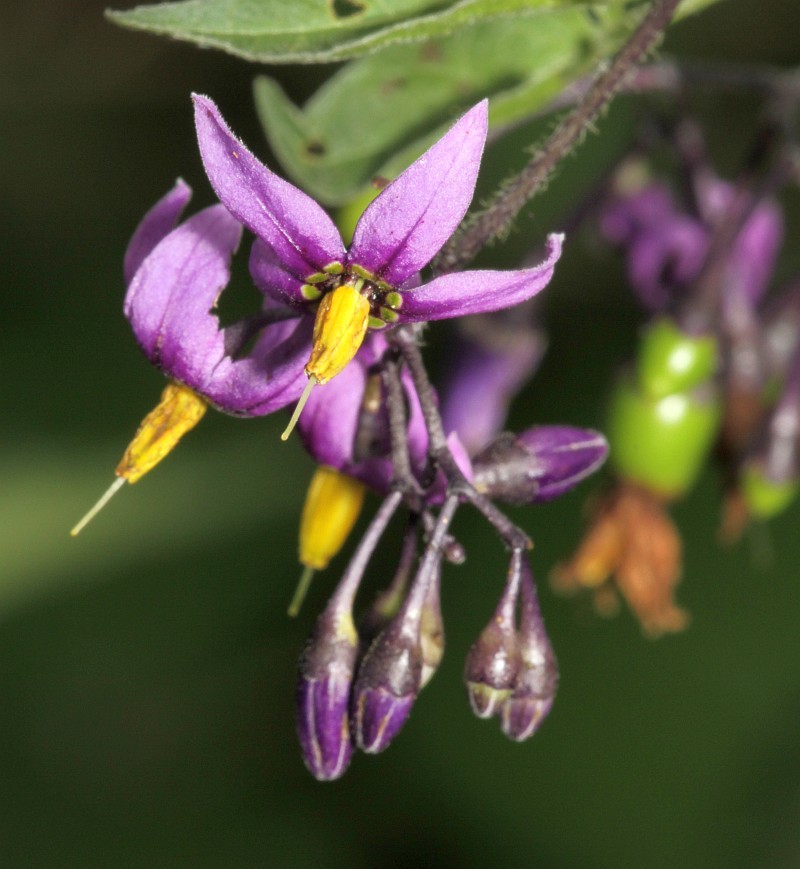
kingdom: Plantae
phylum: Tracheophyta
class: Magnoliopsida
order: Solanales
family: Solanaceae
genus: Solanum
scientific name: Solanum dulcamara
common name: Climbing nightshade
